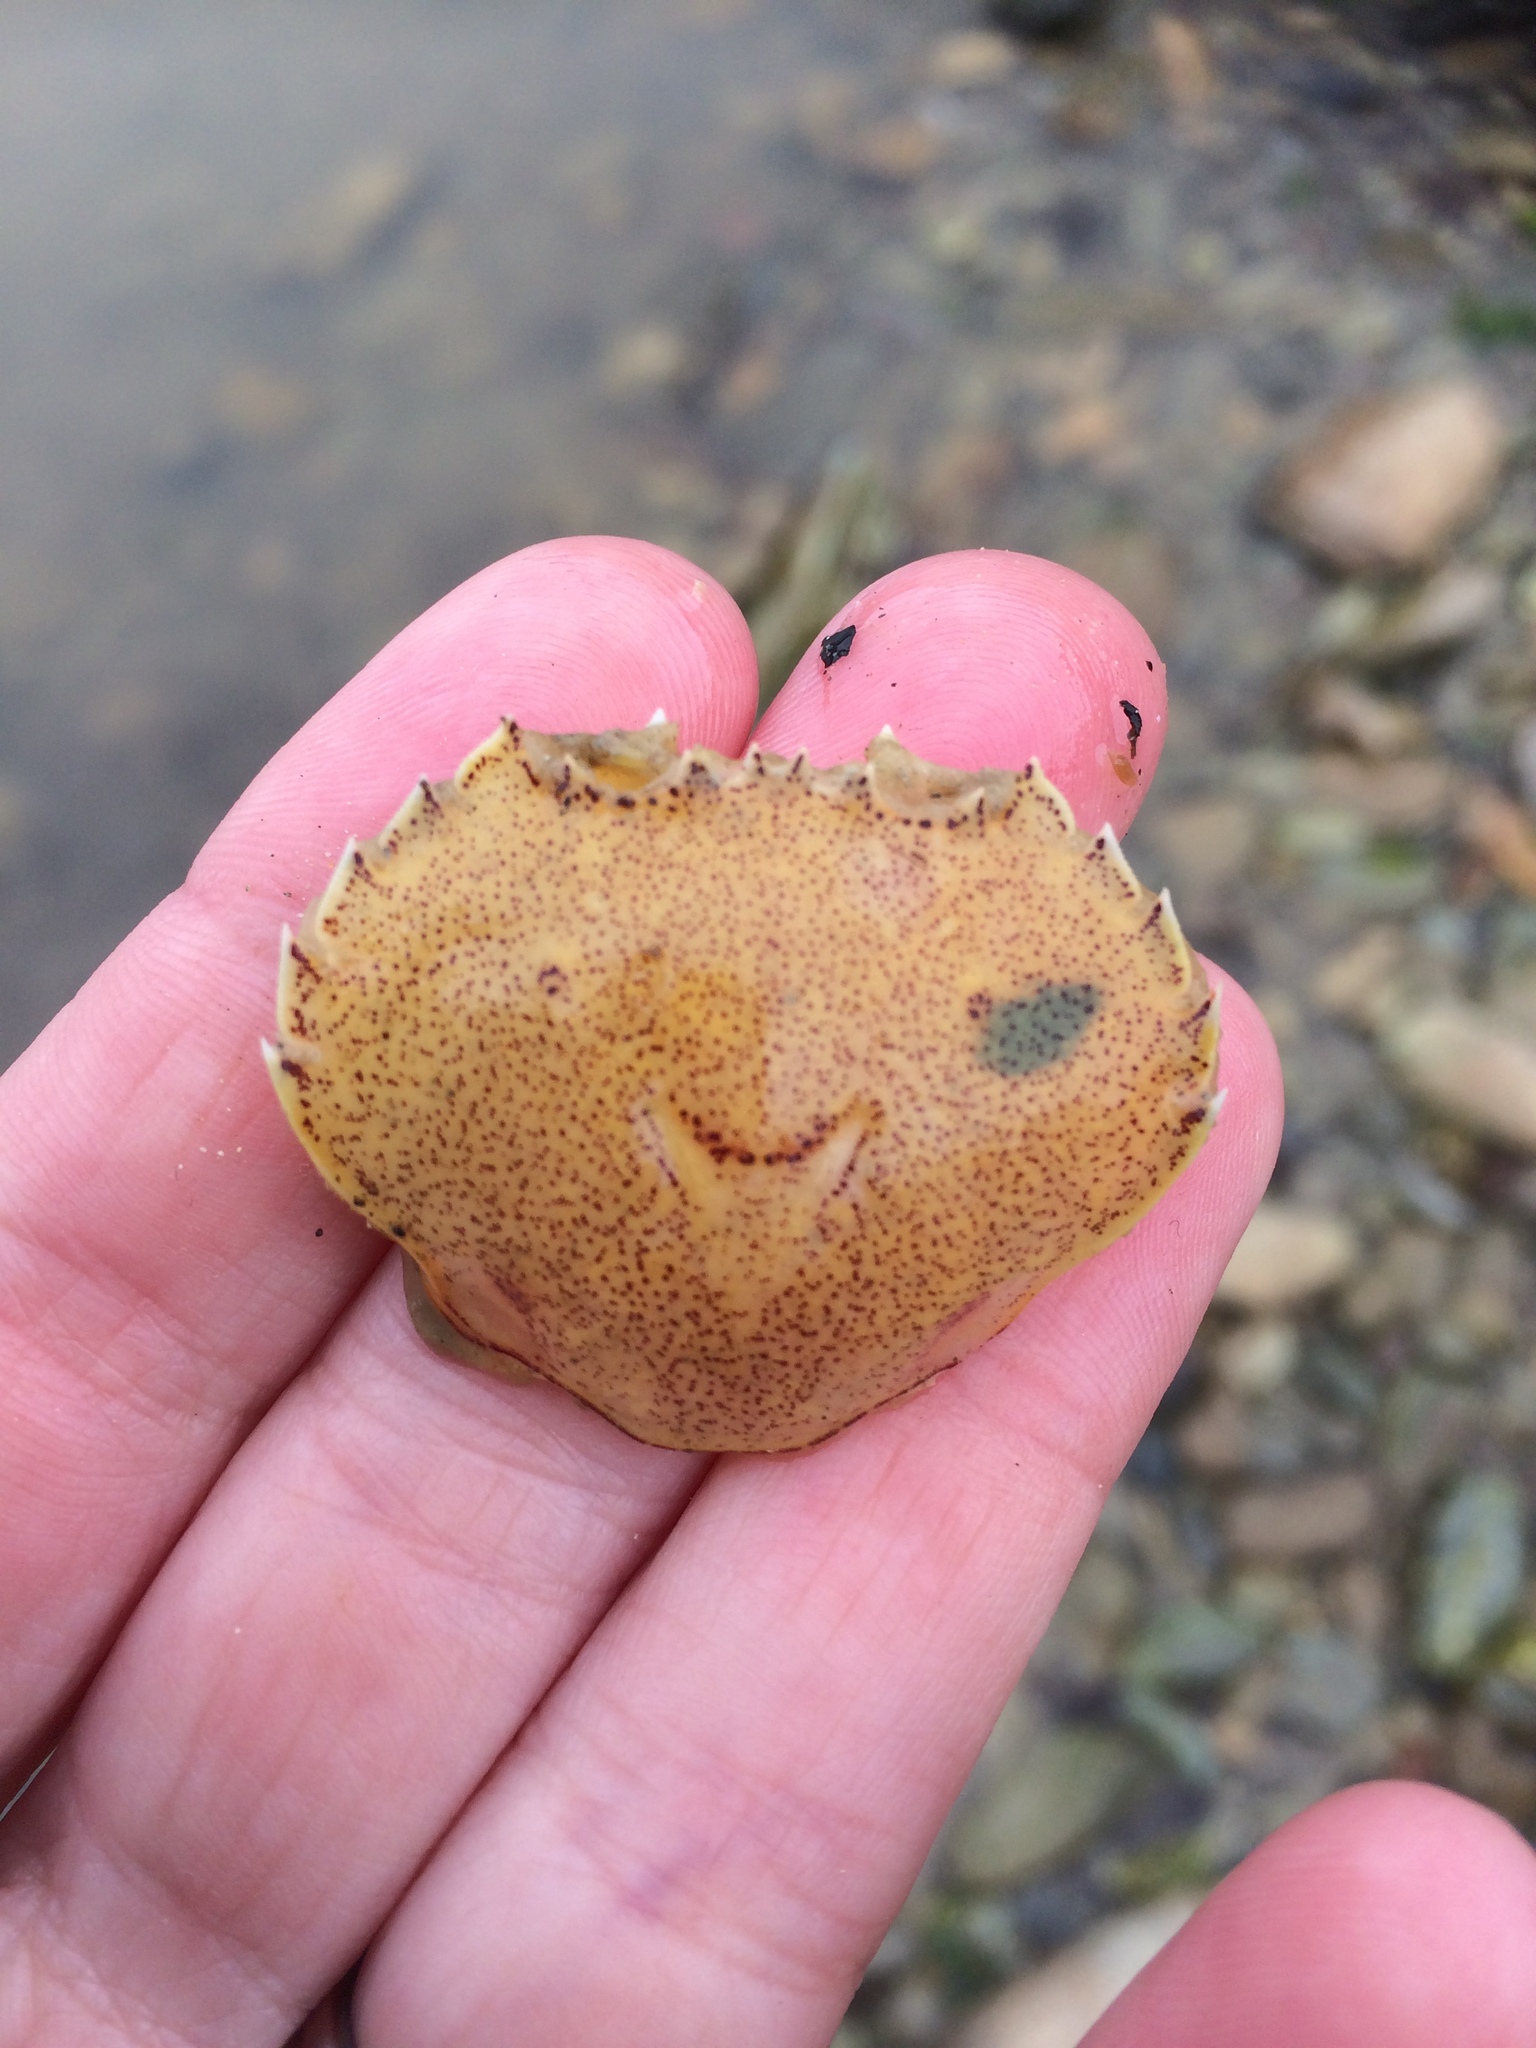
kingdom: Animalia
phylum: Arthropoda
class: Malacostraca
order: Decapoda
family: Ovalipidae
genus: Ovalipes
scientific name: Ovalipes catharus
